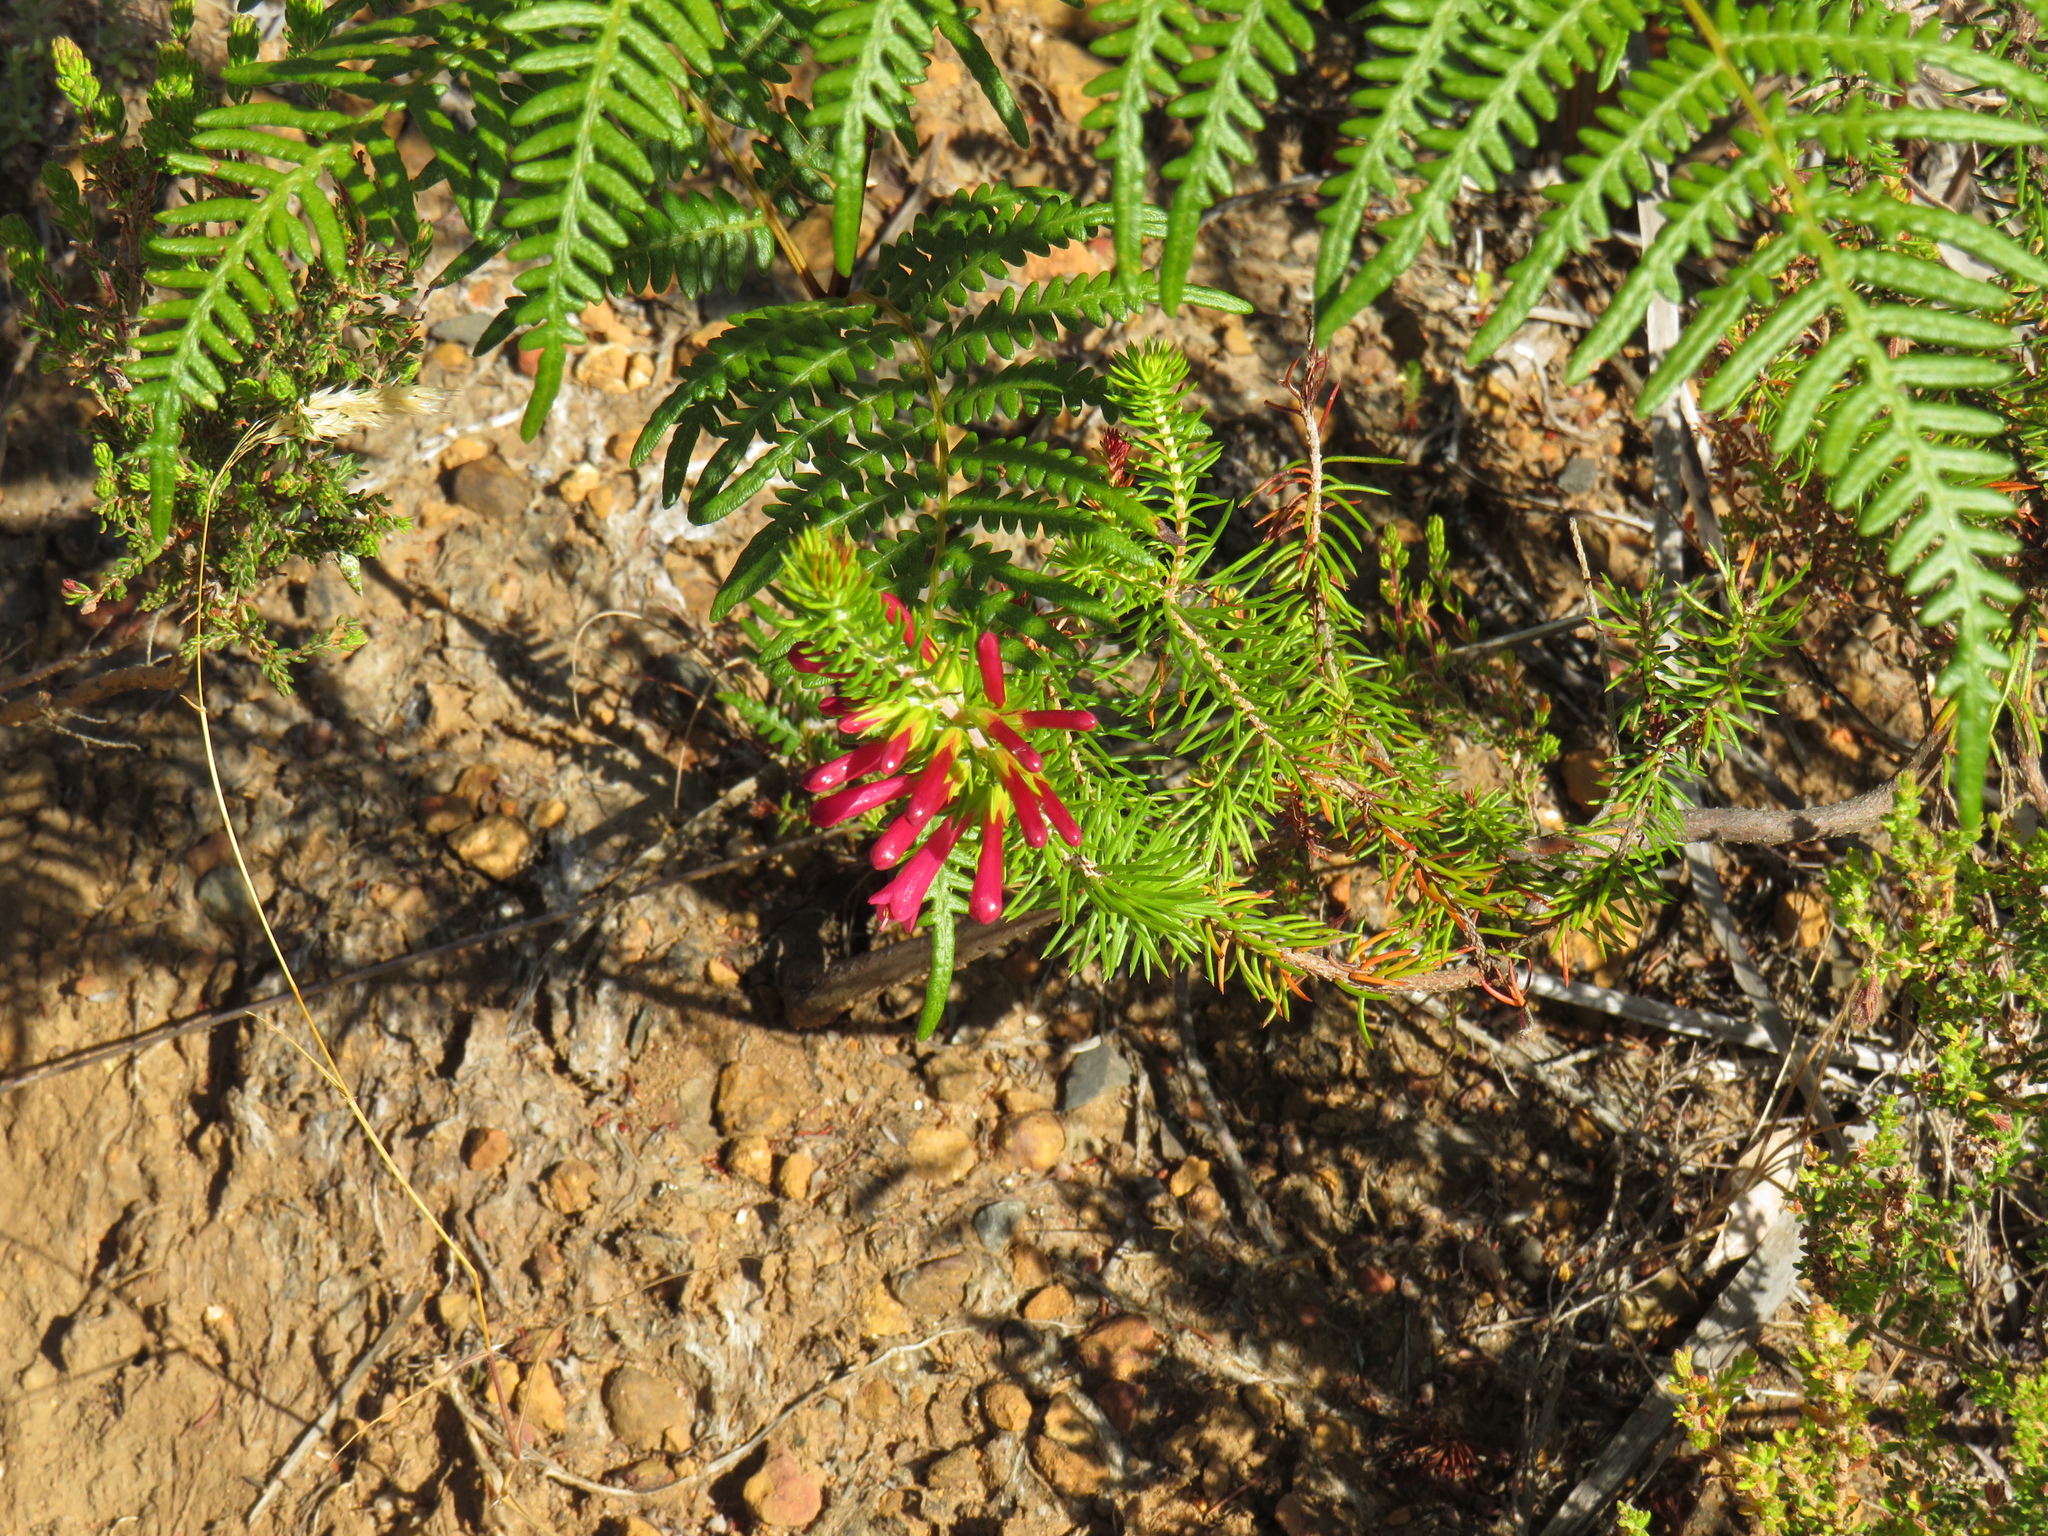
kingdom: Plantae
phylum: Tracheophyta
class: Magnoliopsida
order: Ericales
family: Ericaceae
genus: Erica
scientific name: Erica abietina
